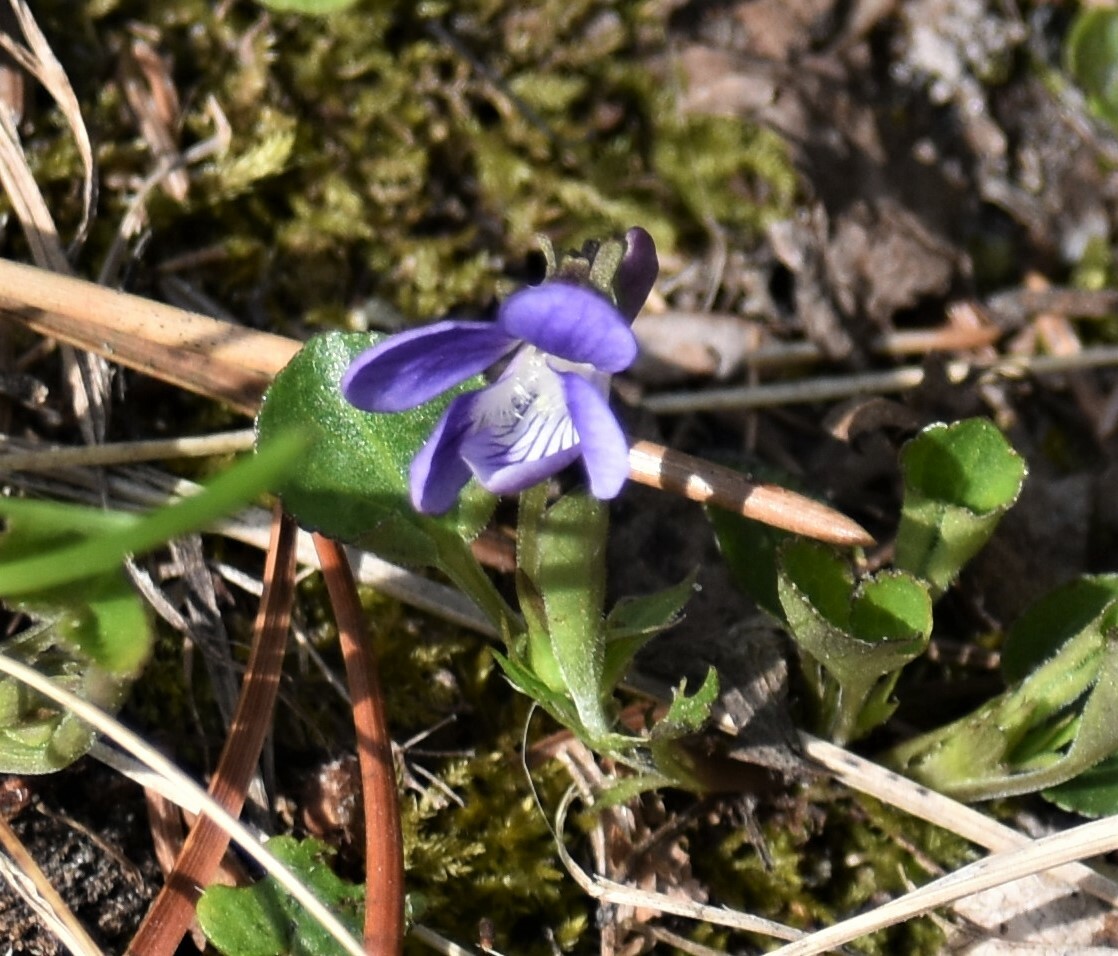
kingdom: Plantae
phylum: Tracheophyta
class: Magnoliopsida
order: Malpighiales
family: Violaceae
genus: Viola
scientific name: Viola adunca
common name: Sand violet
